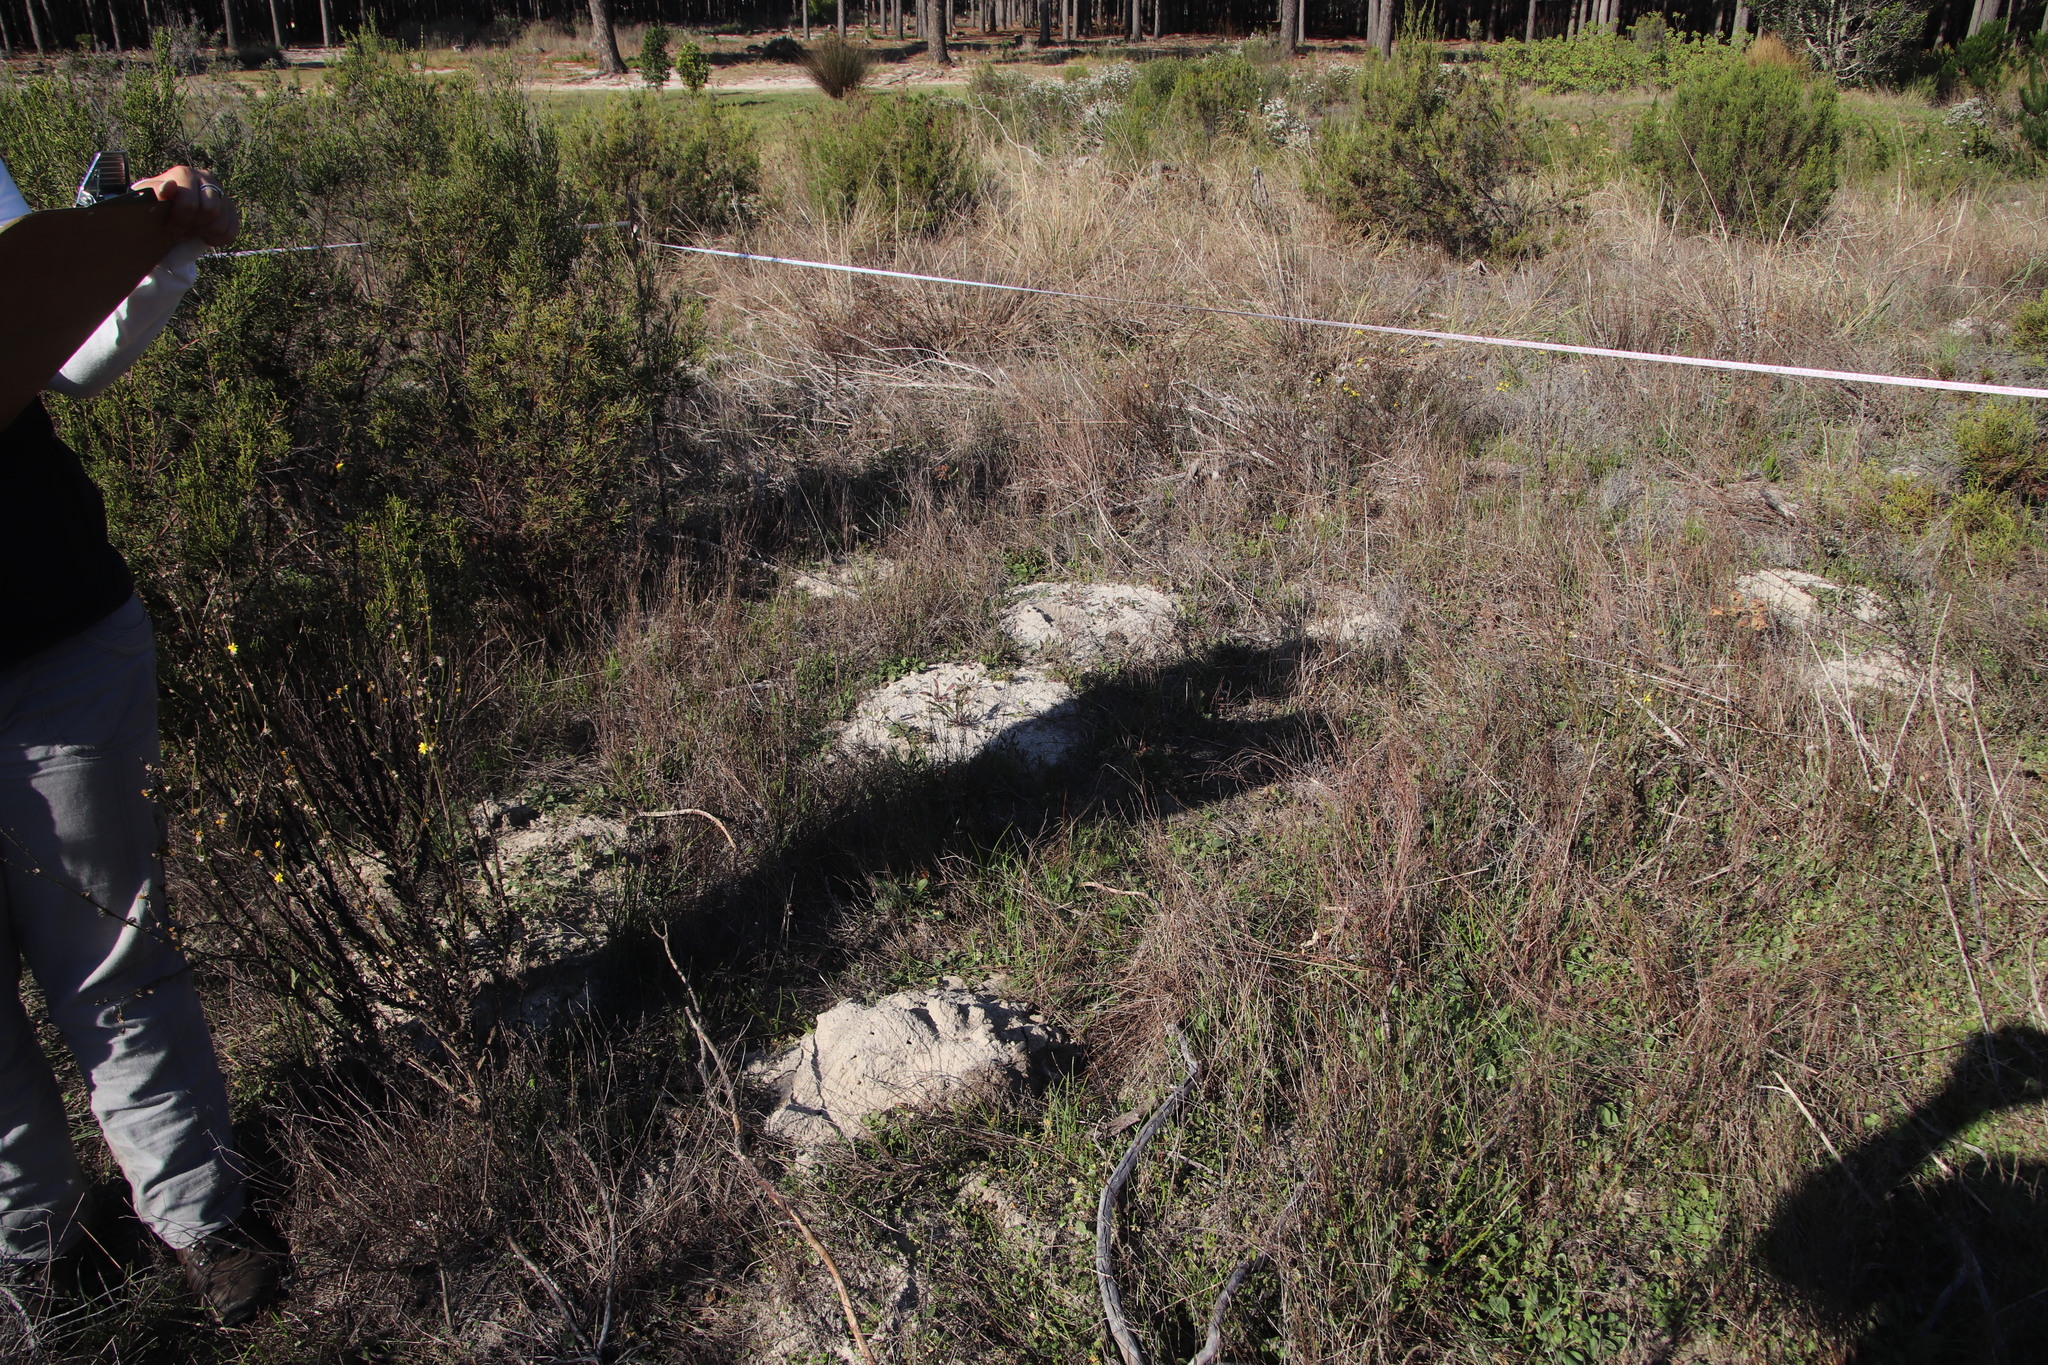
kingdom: Animalia
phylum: Chordata
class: Mammalia
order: Rodentia
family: Bathyergidae
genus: Bathyergus
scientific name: Bathyergus suillus
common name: Cape dune mole rat
